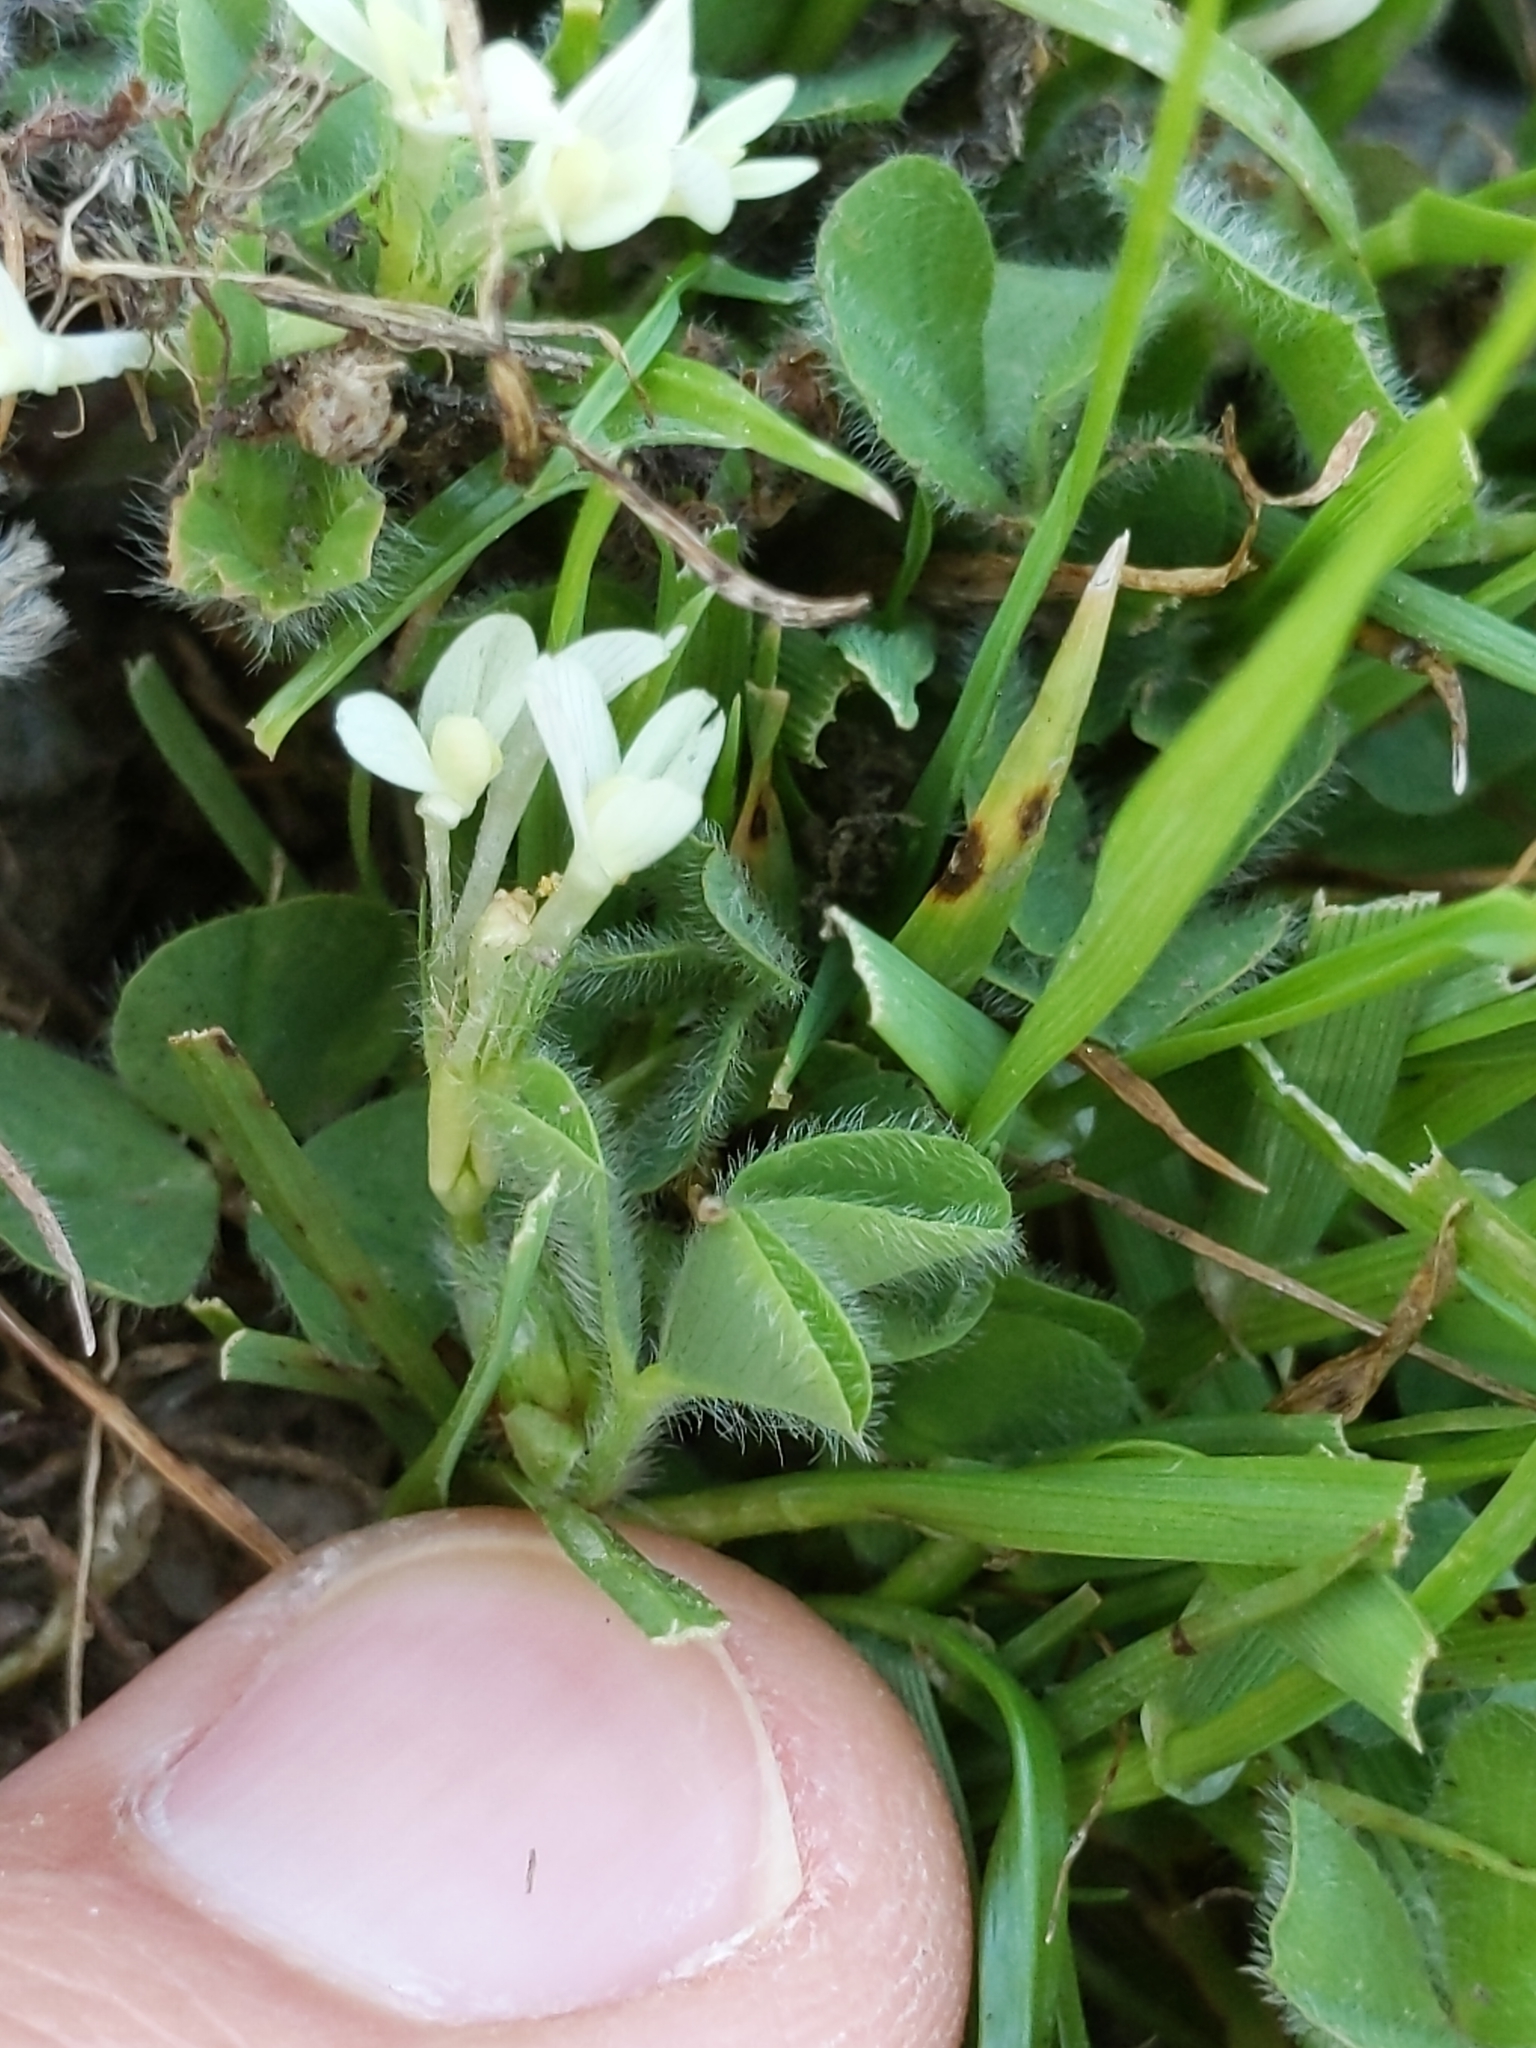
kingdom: Plantae
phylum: Tracheophyta
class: Magnoliopsida
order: Fabales
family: Fabaceae
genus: Trifolium
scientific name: Trifolium subterraneum
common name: Subterranean clover
